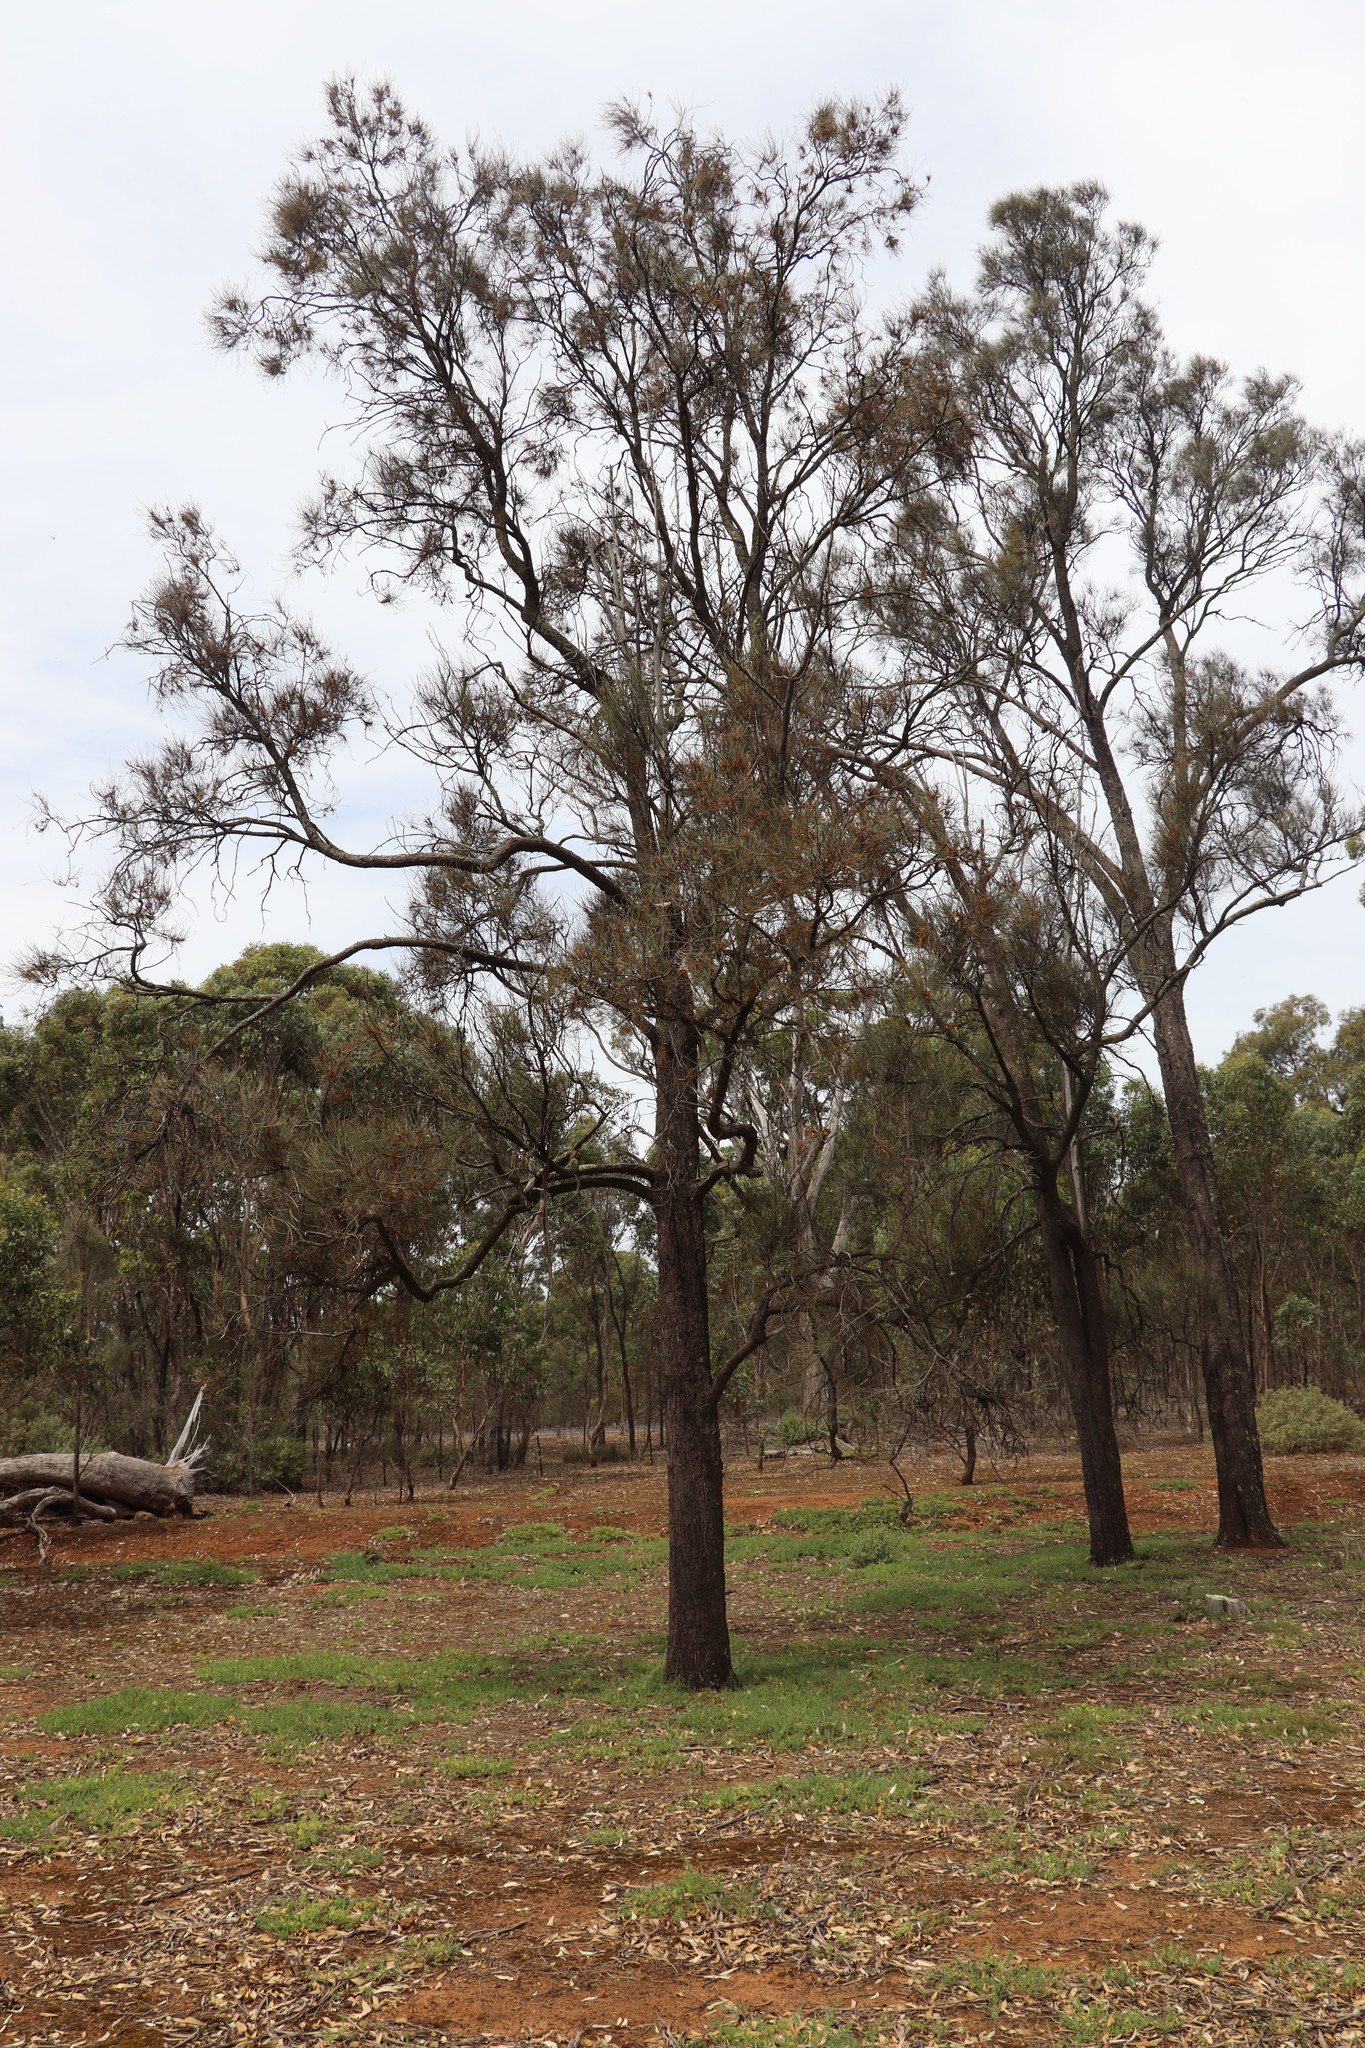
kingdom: Plantae
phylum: Tracheophyta
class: Magnoliopsida
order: Fagales
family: Casuarinaceae
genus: Allocasuarina
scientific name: Allocasuarina luehmannii
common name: Bull-oak
